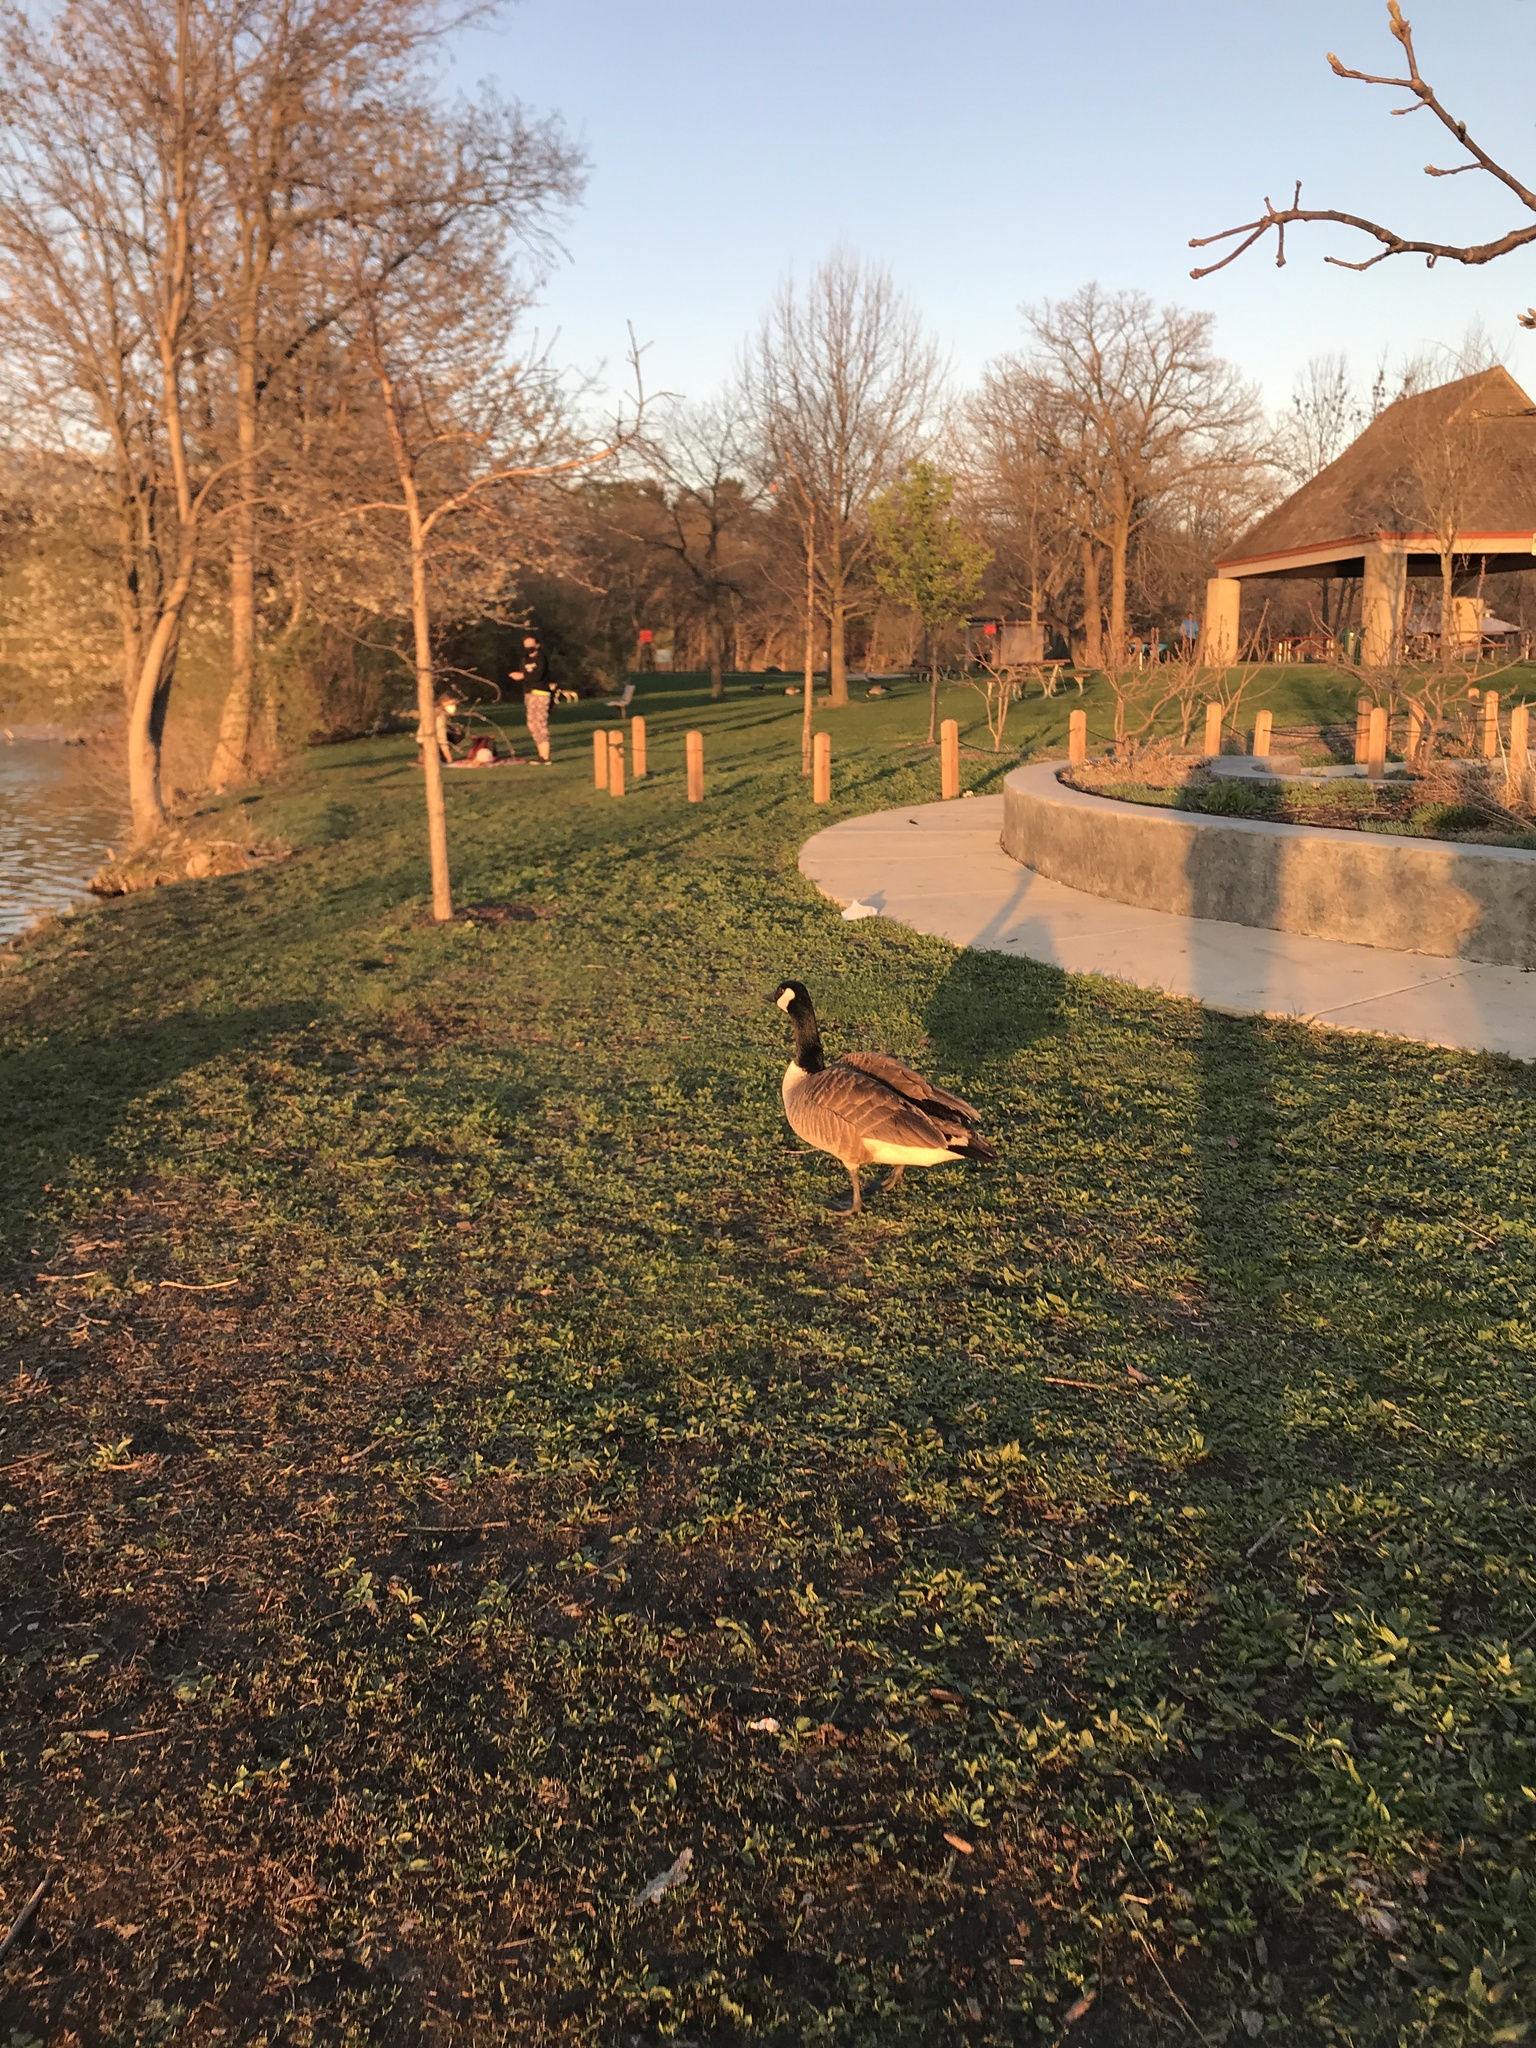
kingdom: Animalia
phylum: Chordata
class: Aves
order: Anseriformes
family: Anatidae
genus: Branta
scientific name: Branta canadensis
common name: Canada goose
